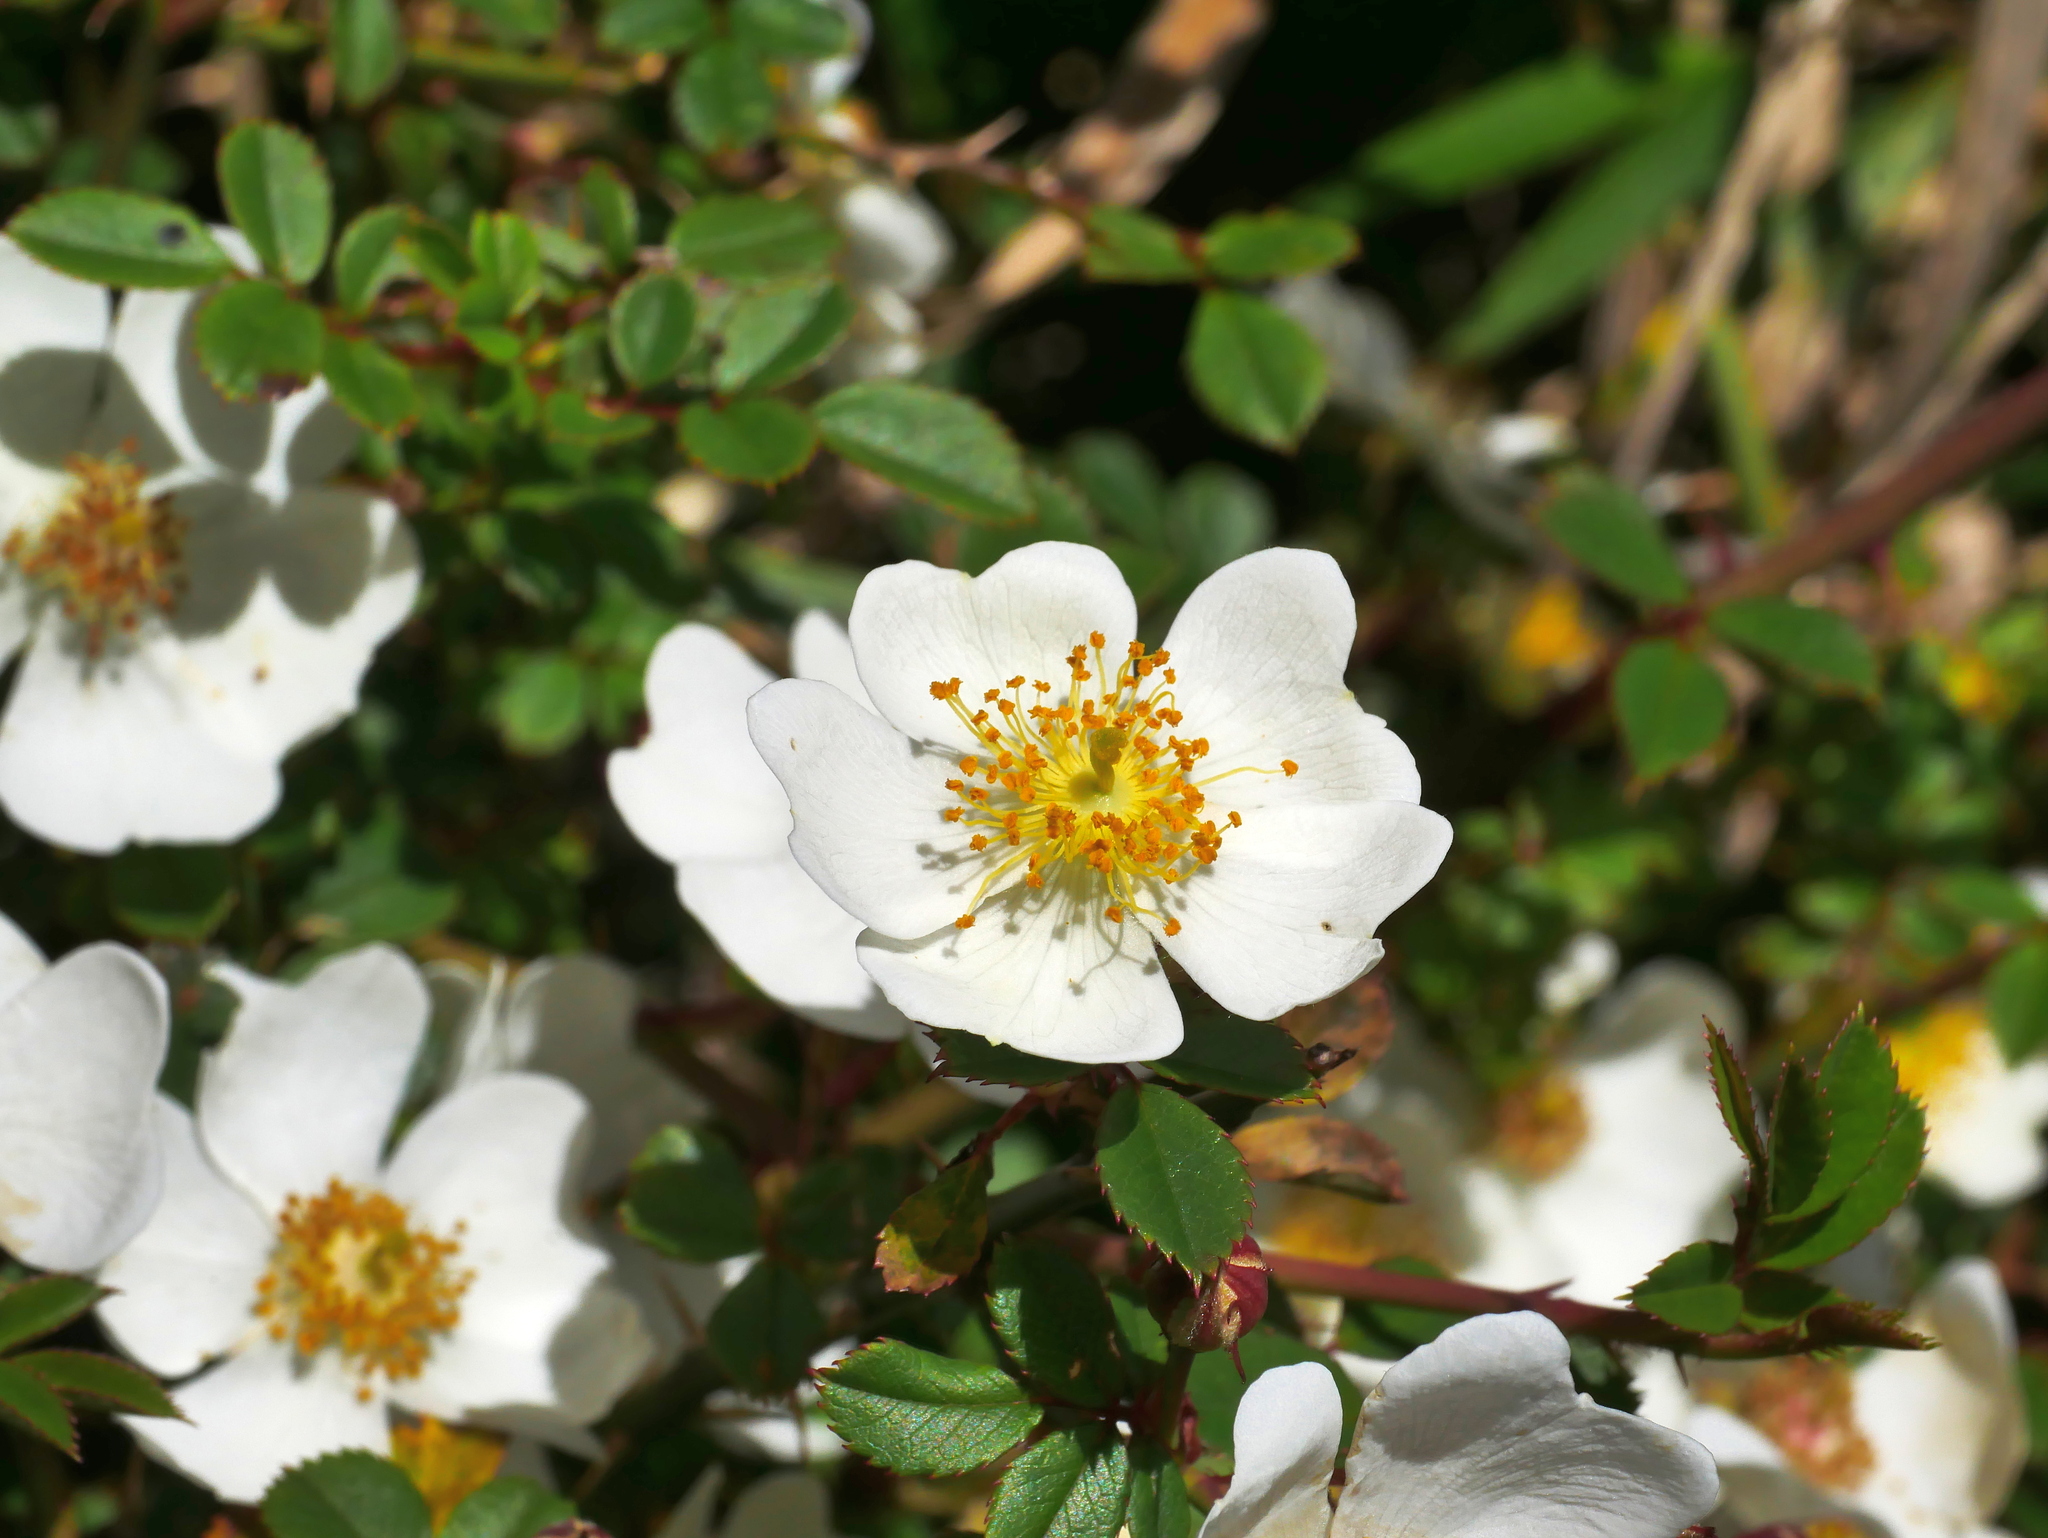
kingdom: Plantae
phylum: Tracheophyta
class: Magnoliopsida
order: Rosales
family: Rosaceae
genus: Rosa
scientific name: Rosa transmorrisonensis
